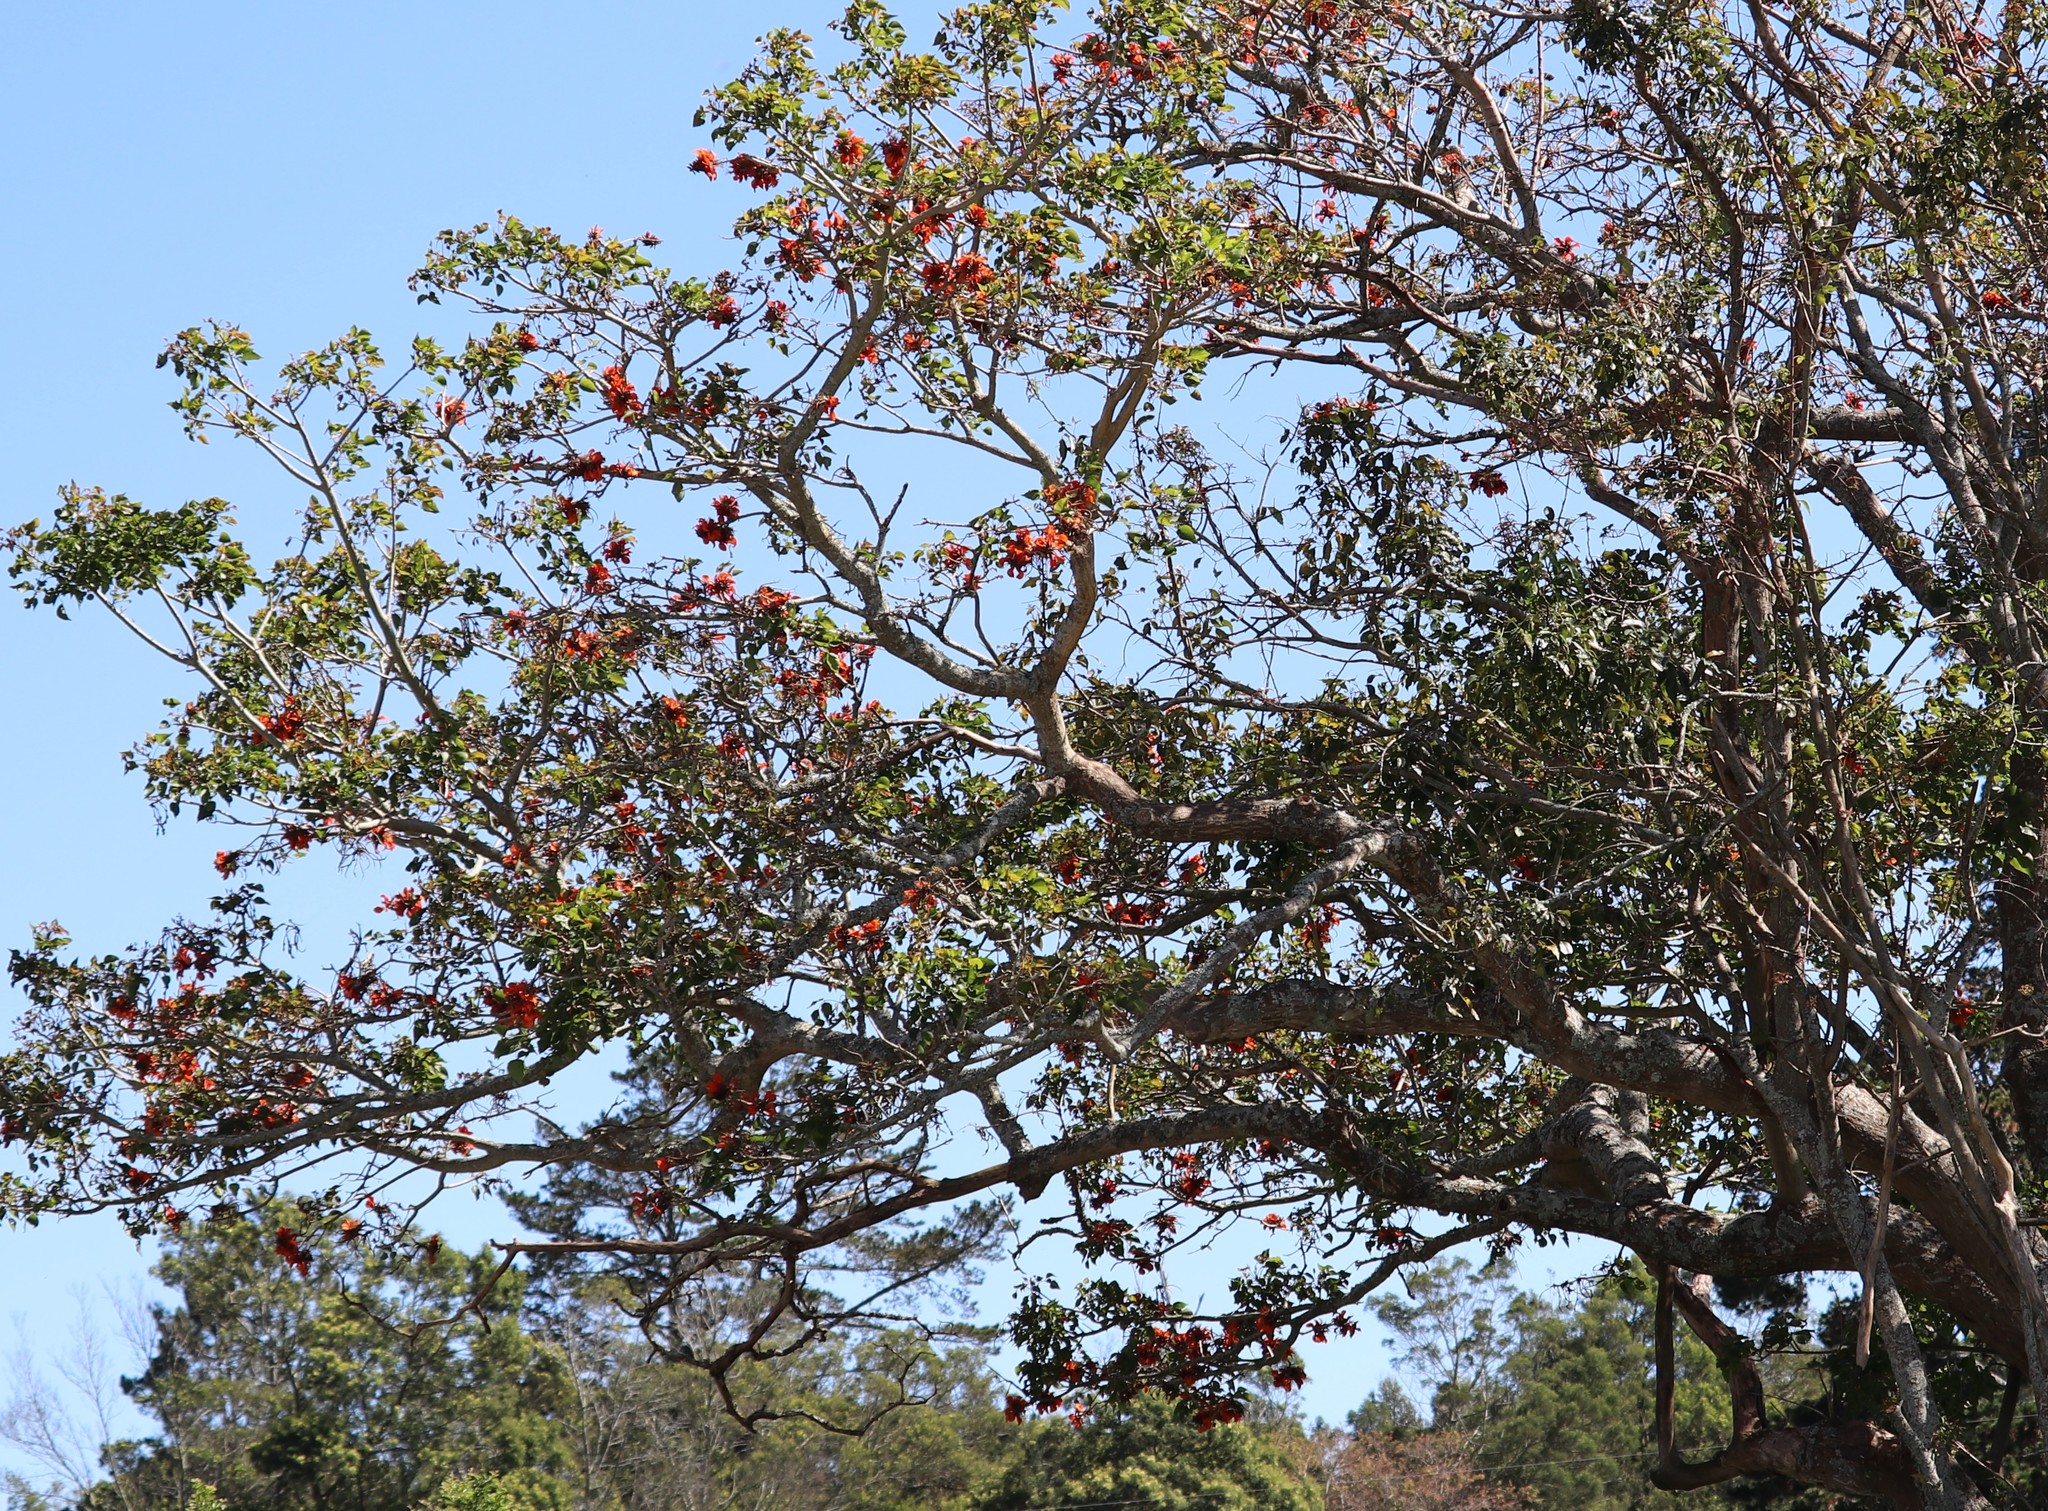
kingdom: Plantae
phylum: Tracheophyta
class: Magnoliopsida
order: Fabales
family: Fabaceae
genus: Erythrina
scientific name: Erythrina caffra
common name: Coast coral tree
